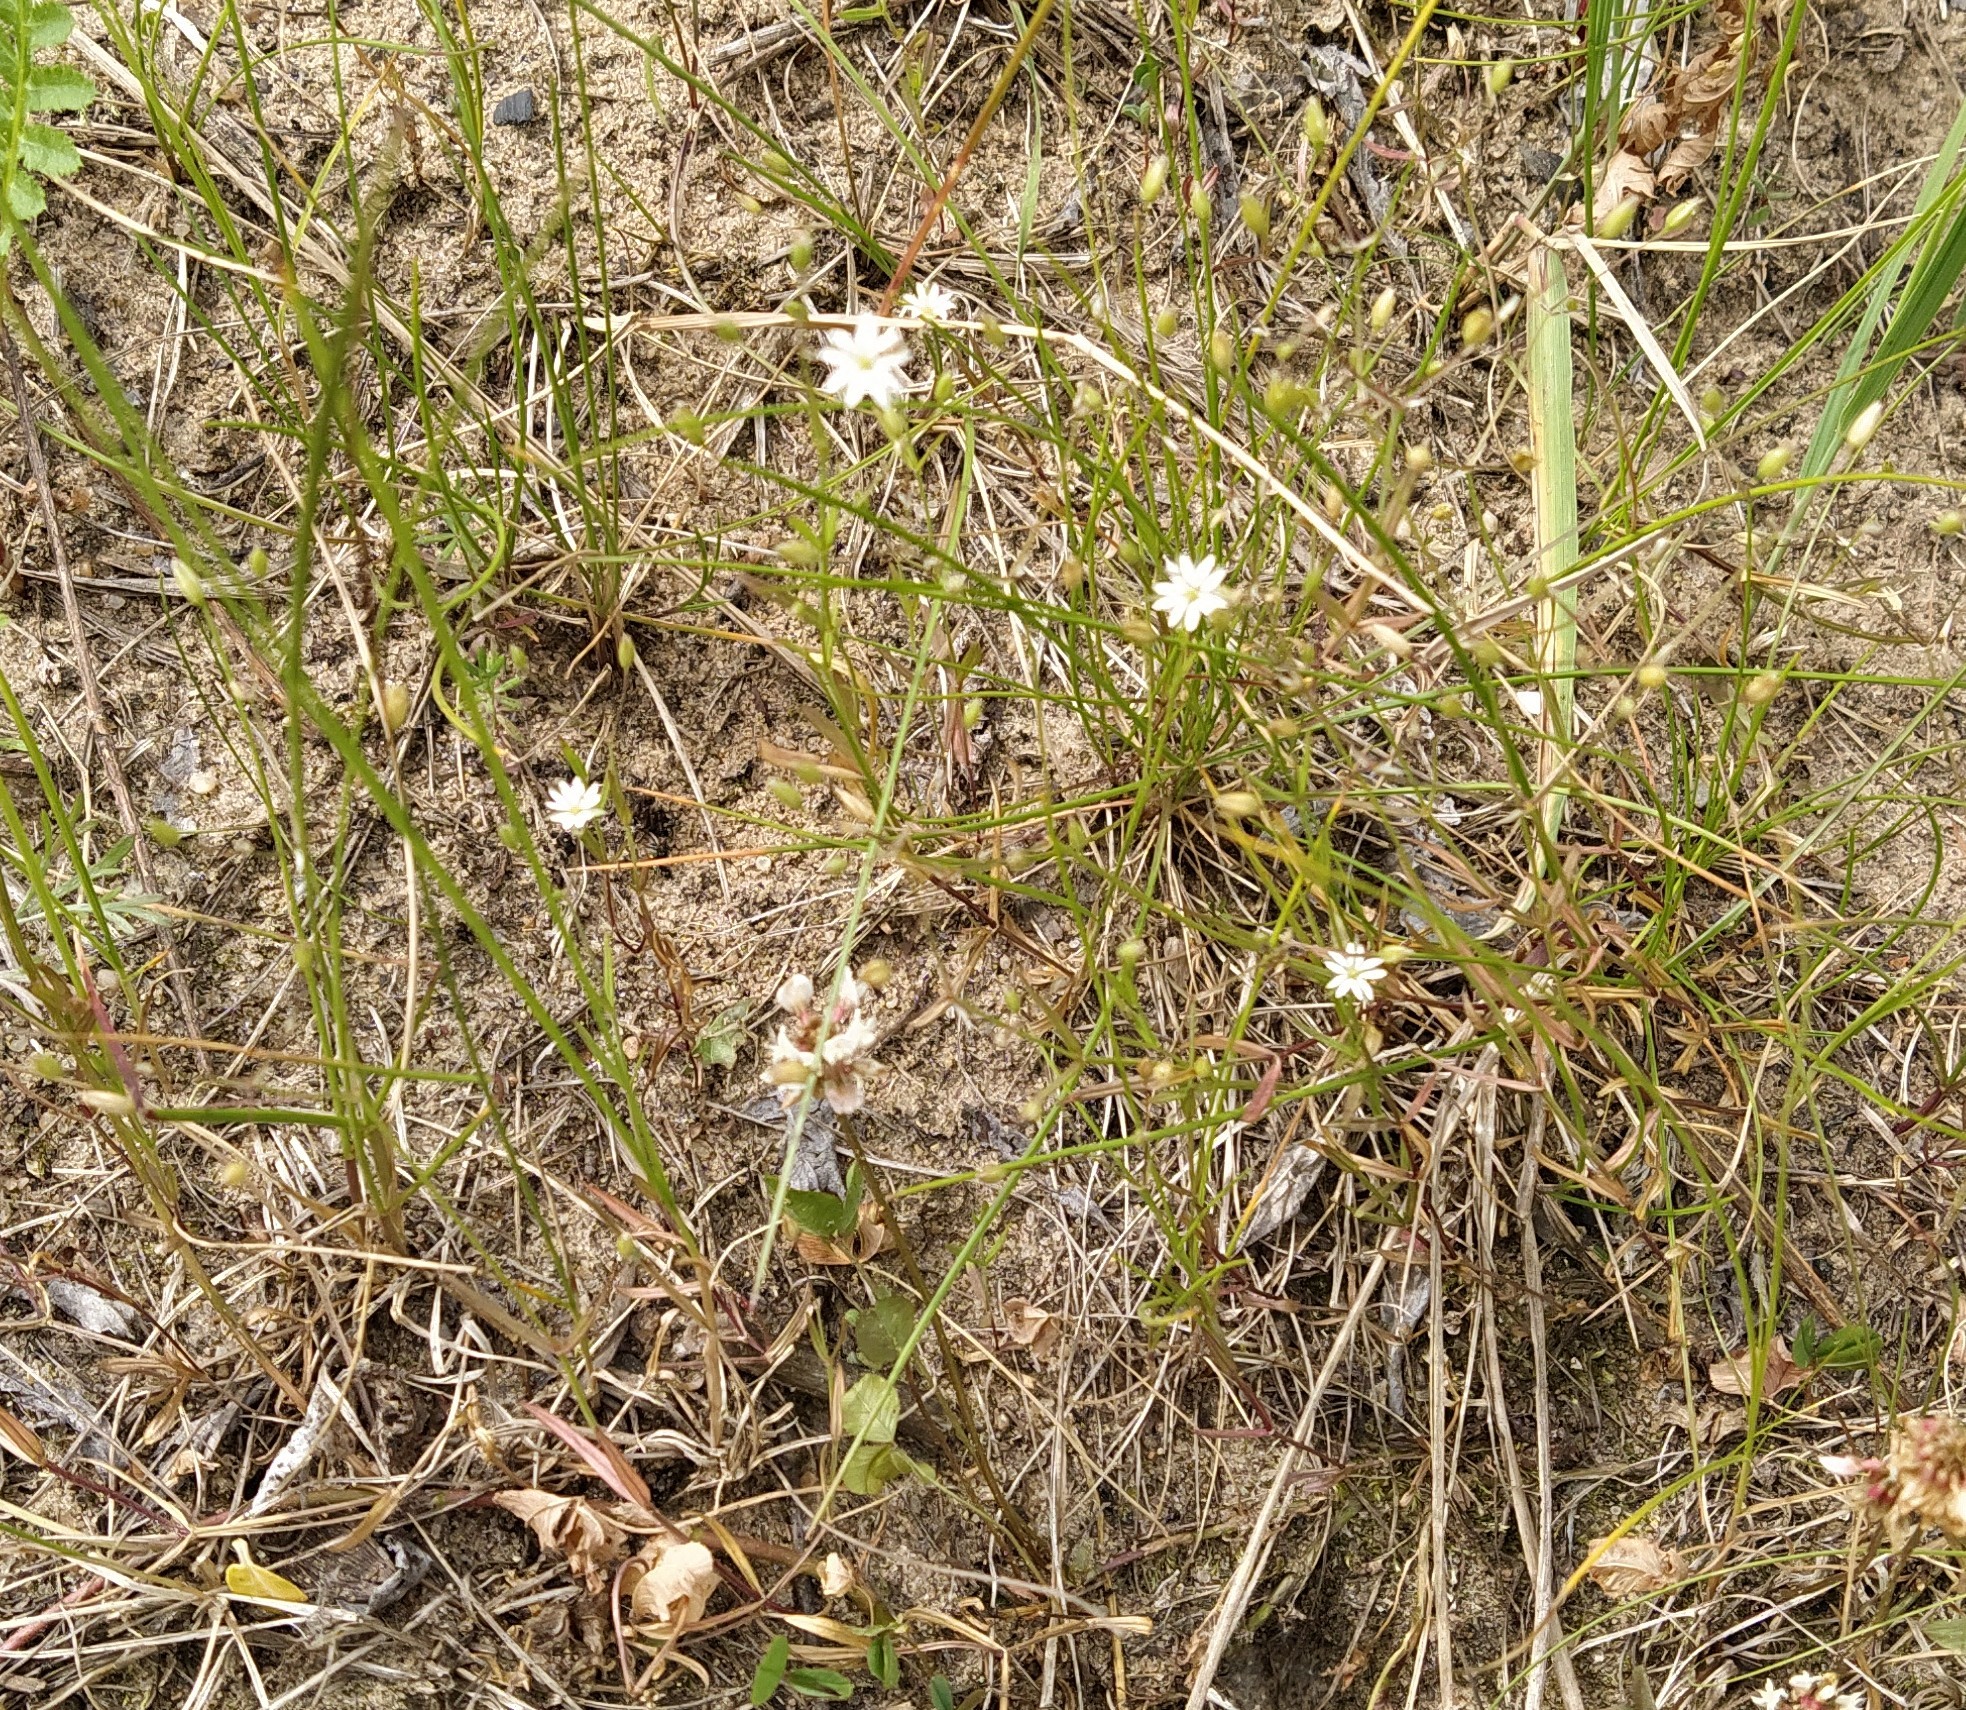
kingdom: Plantae
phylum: Tracheophyta
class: Magnoliopsida
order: Caryophyllales
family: Caryophyllaceae
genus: Stellaria
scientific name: Stellaria graminea
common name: Grass-like starwort
